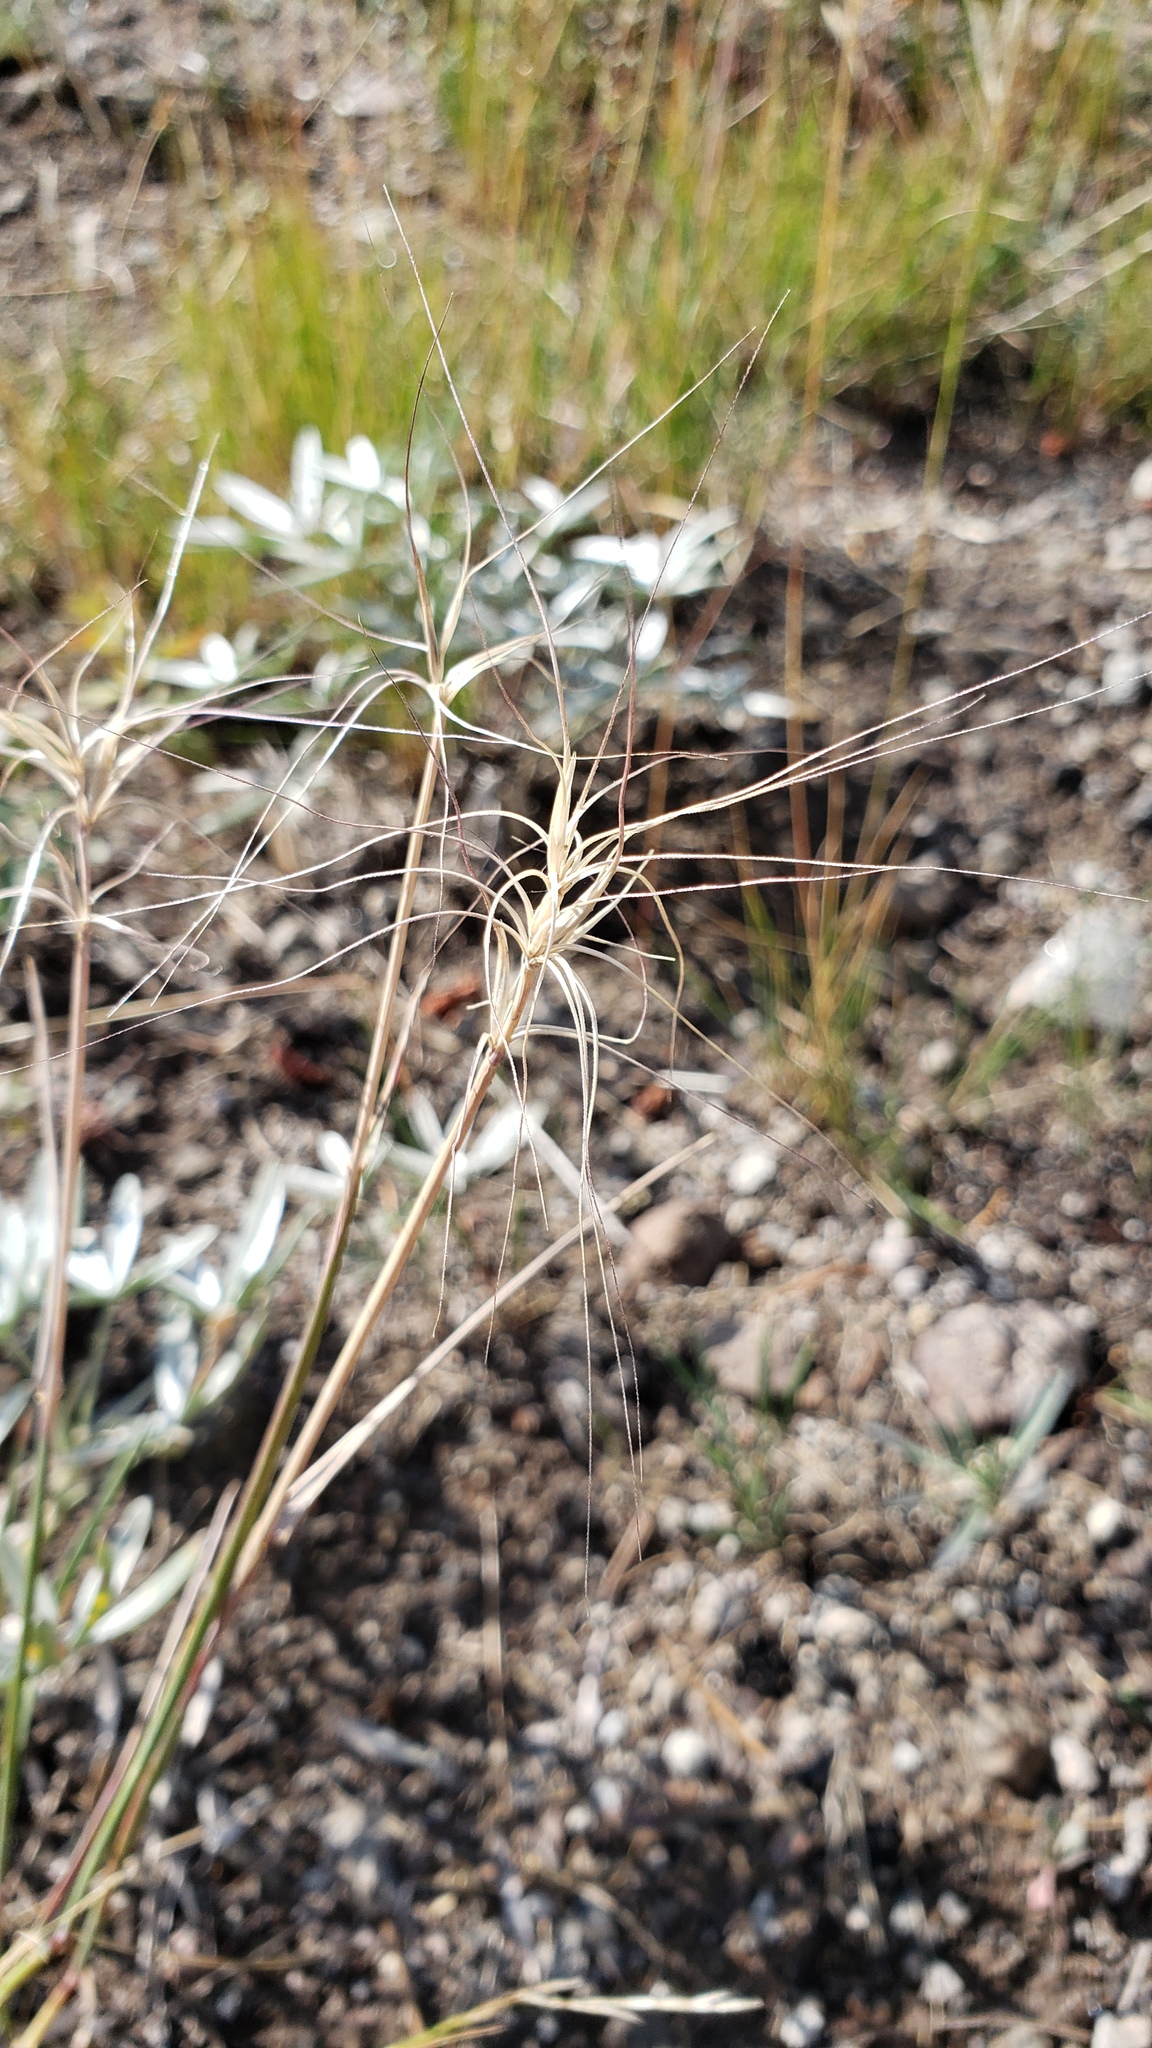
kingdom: Plantae
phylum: Tracheophyta
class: Liliopsida
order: Poales
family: Poaceae
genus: Elymus
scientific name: Elymus elymoides
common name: Bottlebrush squirreltail
